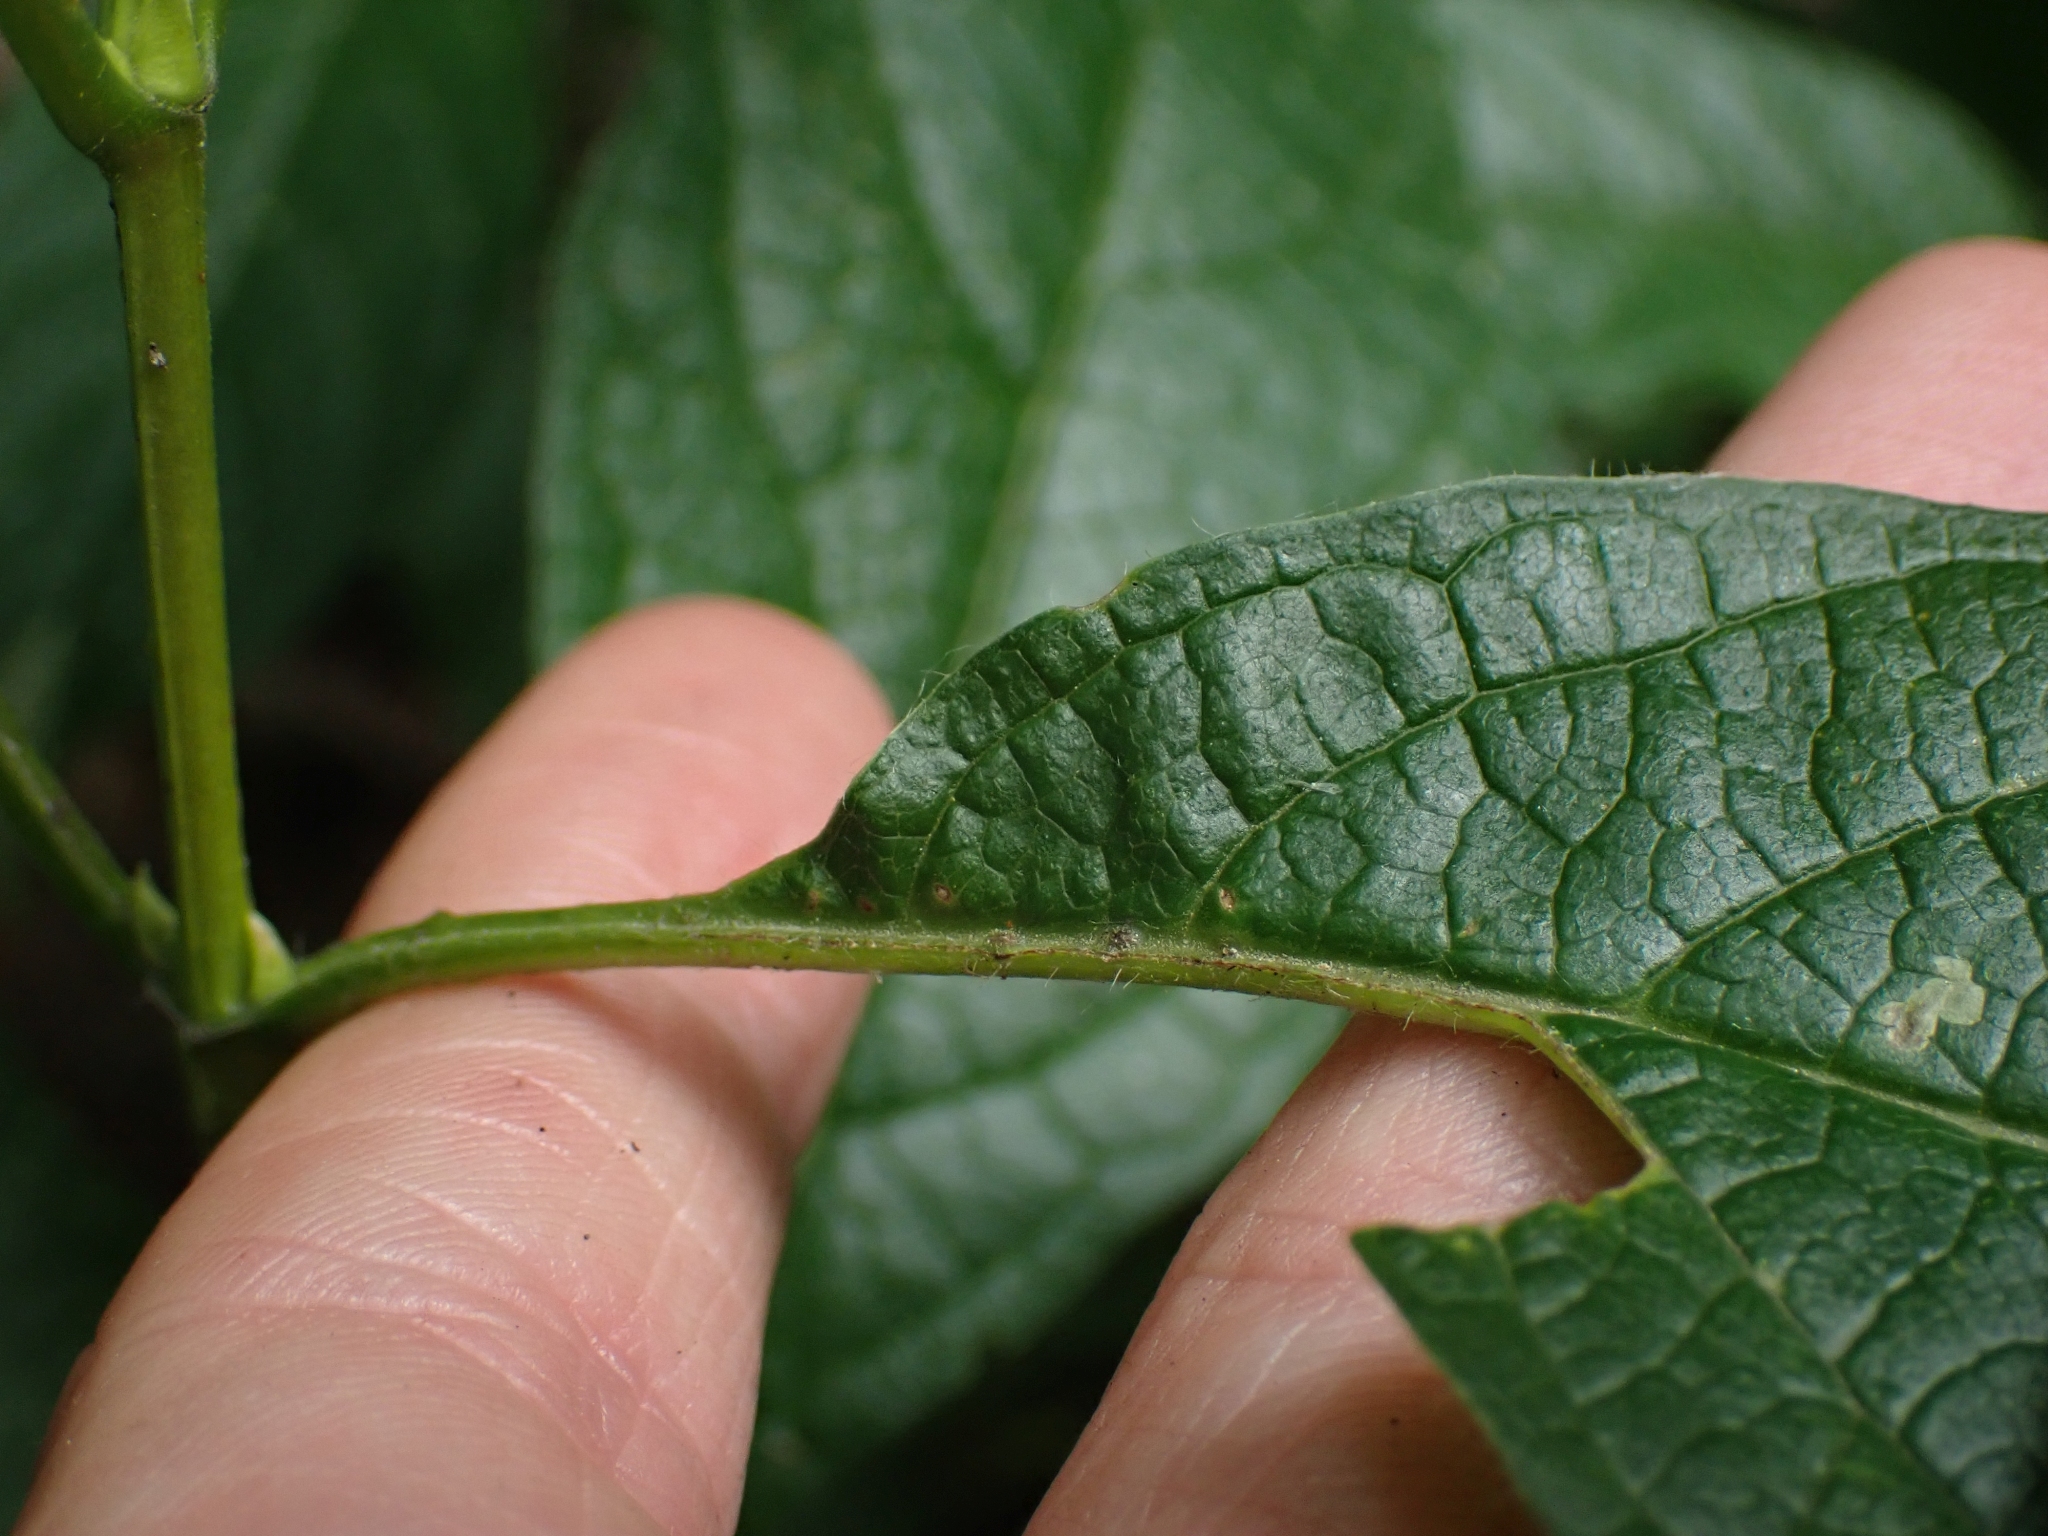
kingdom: Plantae
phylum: Tracheophyta
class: Magnoliopsida
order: Lamiales
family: Lamiaceae
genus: Prunella
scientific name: Prunella vulgaris
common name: Heal-all
